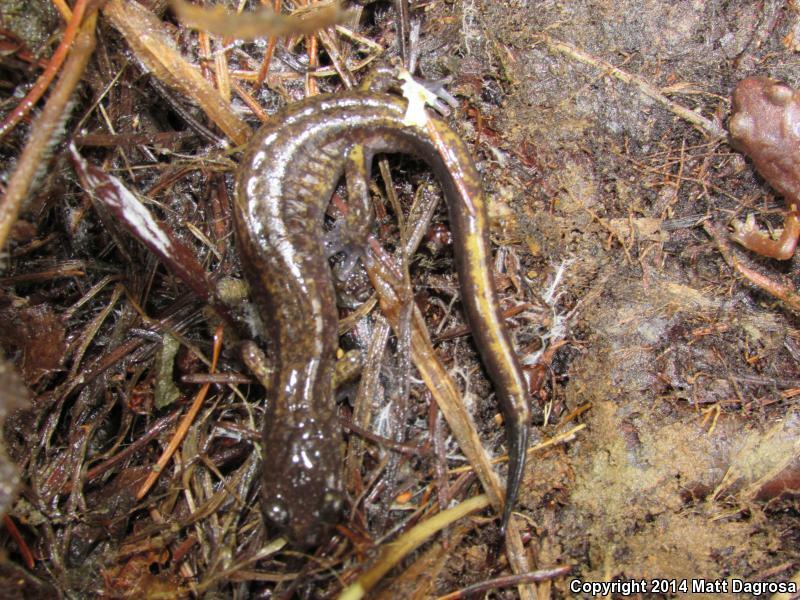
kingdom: Animalia
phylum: Chordata
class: Amphibia
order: Caudata
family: Plethodontidae
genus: Plethodon
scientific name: Plethodon dunni
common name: Dunn's salamander
